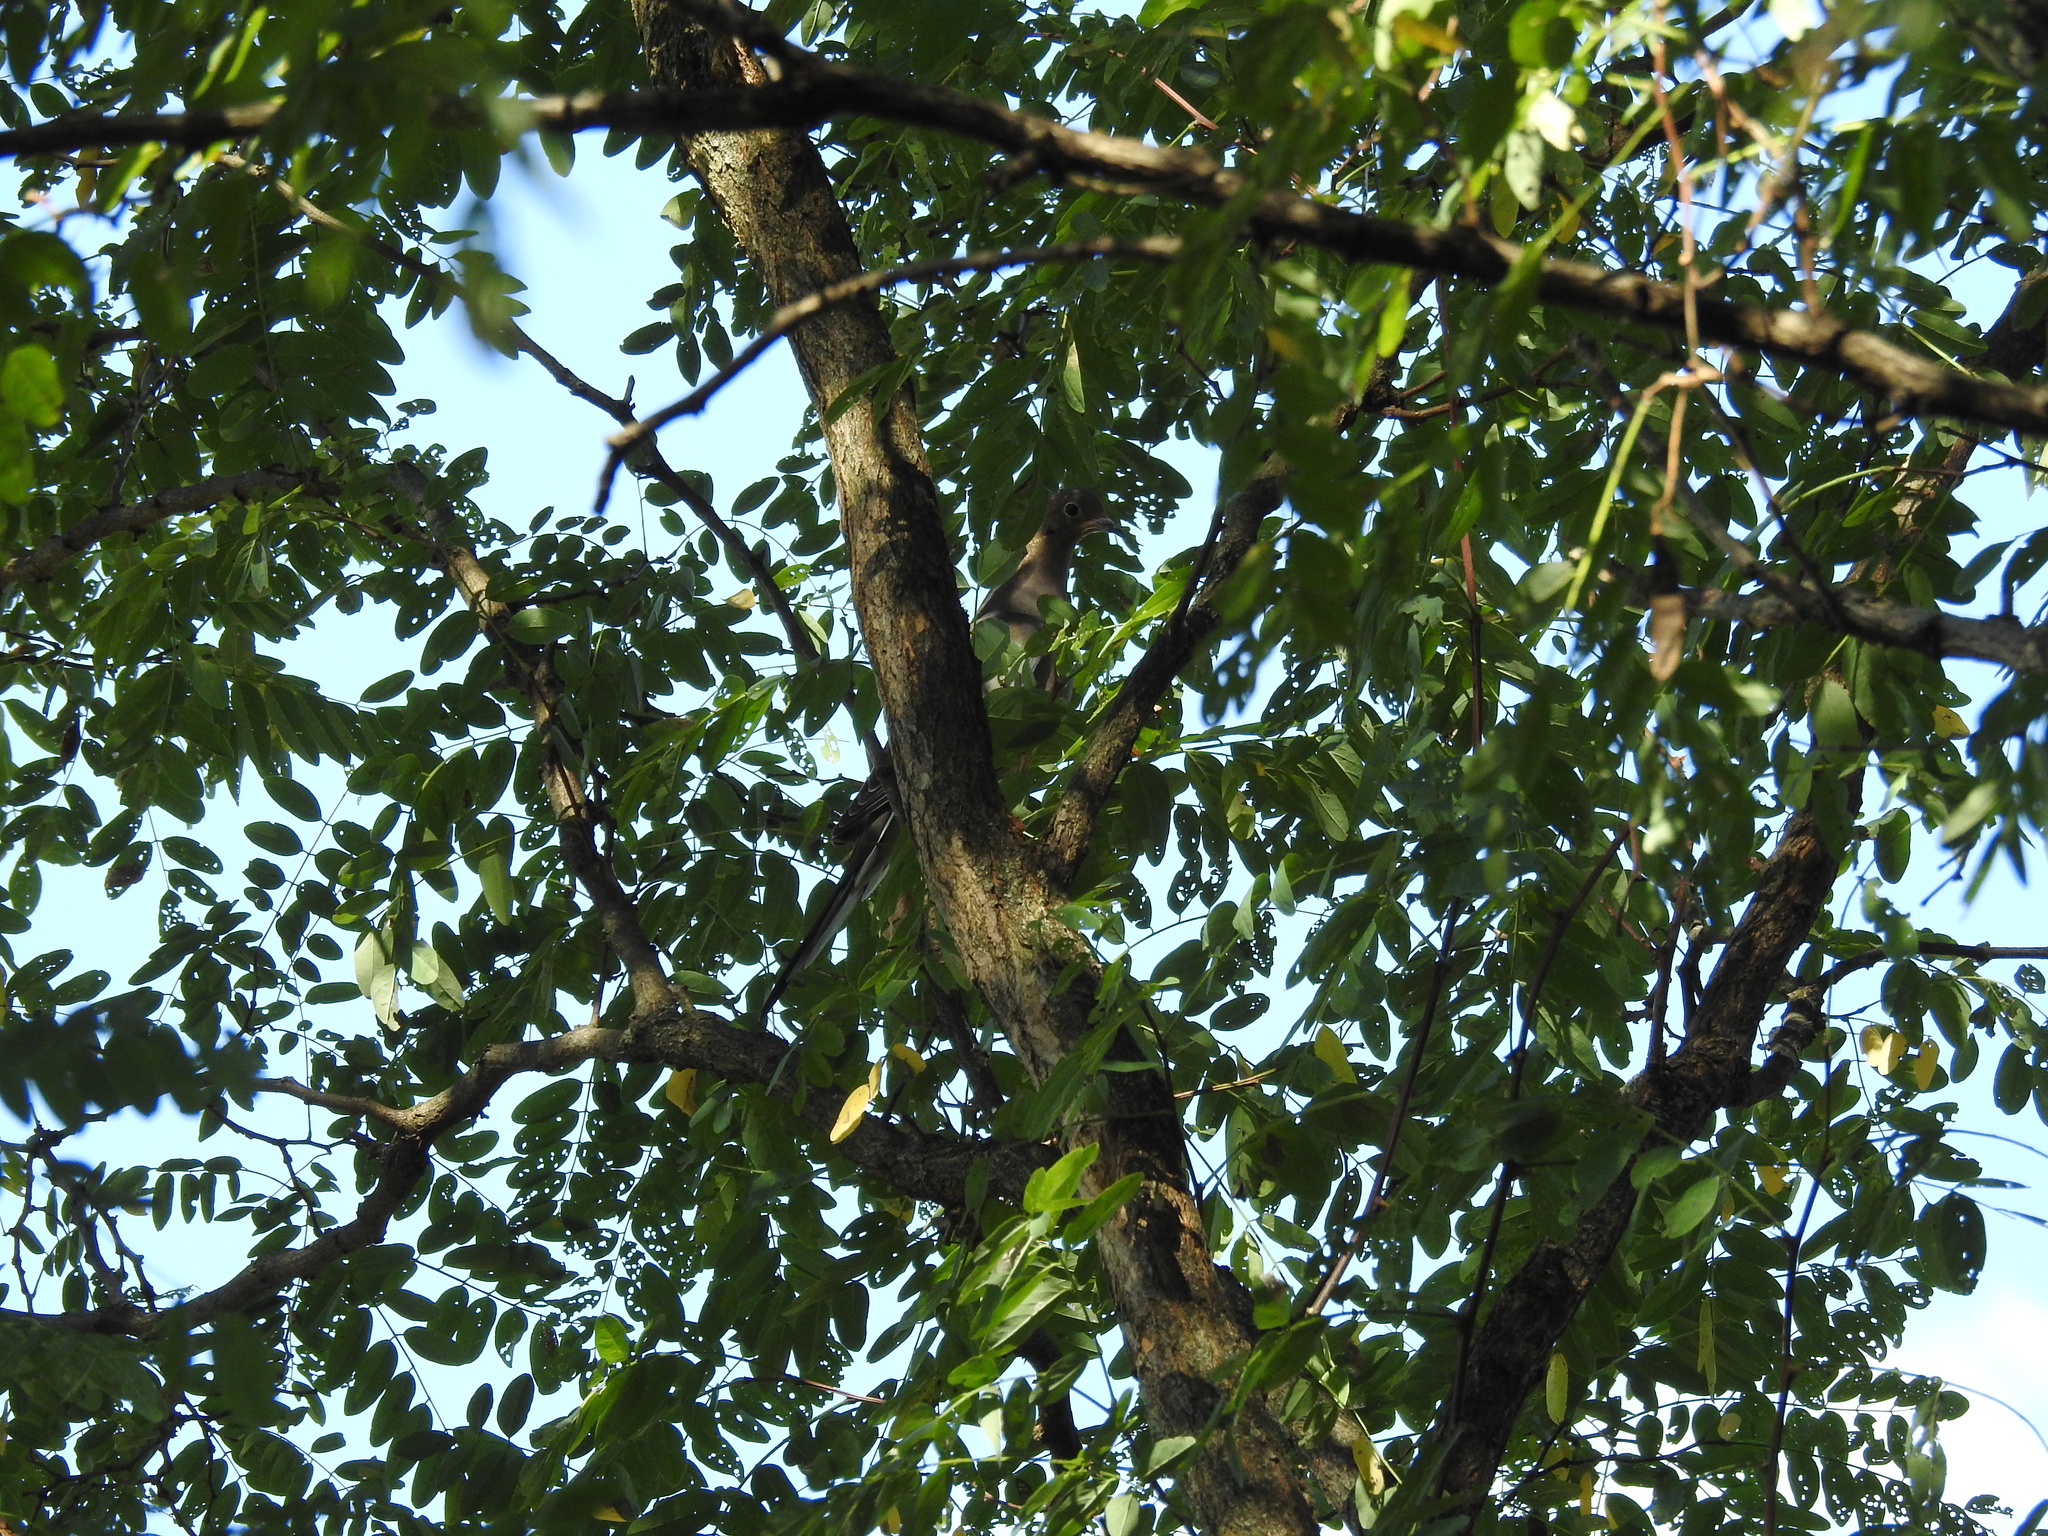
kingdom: Animalia
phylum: Chordata
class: Aves
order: Columbiformes
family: Columbidae
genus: Zenaida
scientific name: Zenaida macroura
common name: Mourning dove
